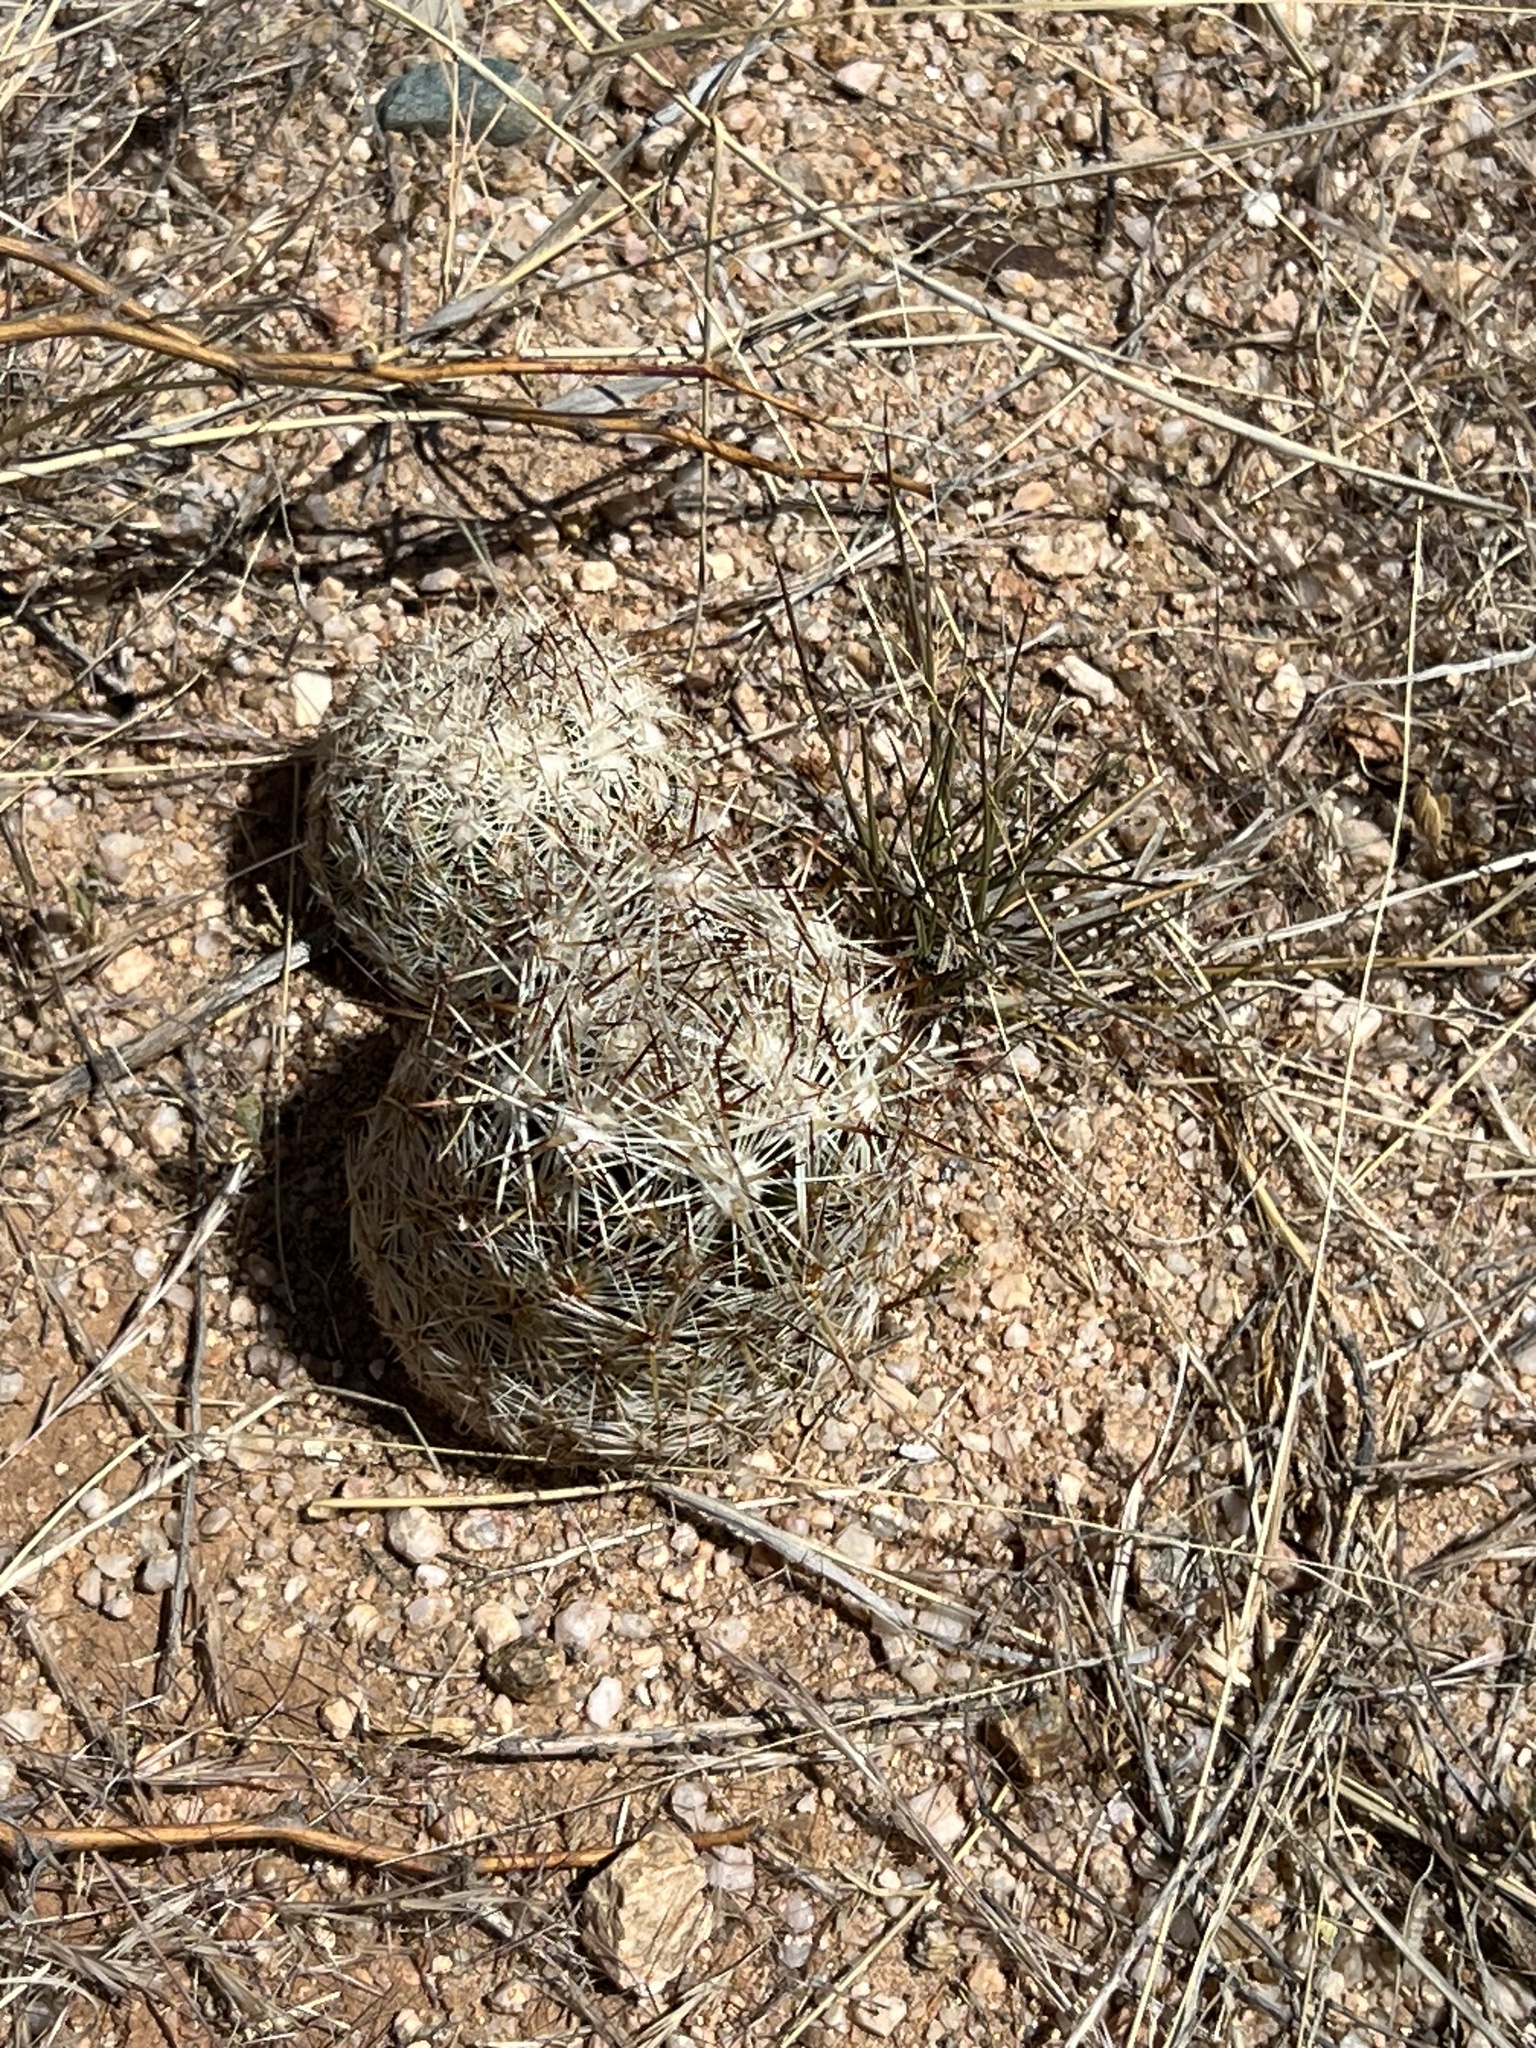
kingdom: Plantae
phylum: Tracheophyta
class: Magnoliopsida
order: Caryophyllales
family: Cactaceae
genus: Pelecyphora
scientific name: Pelecyphora vivipara
